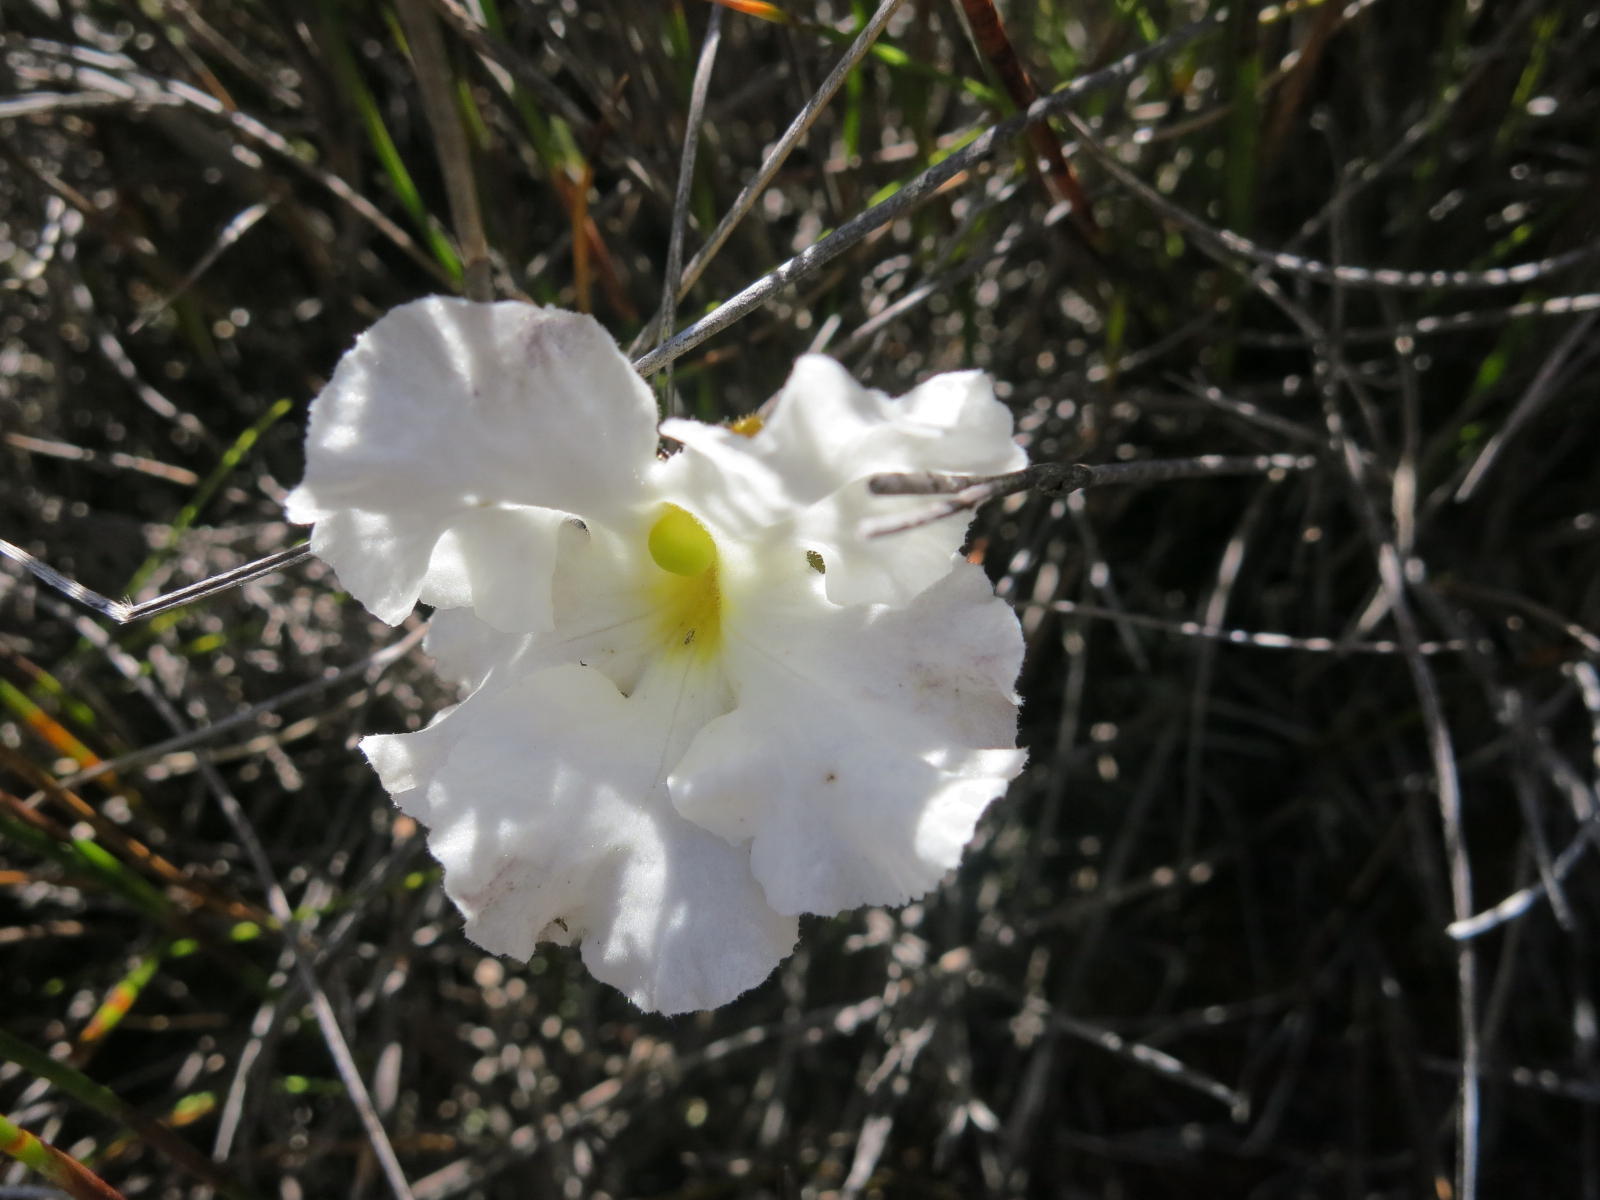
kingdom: Plantae
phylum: Tracheophyta
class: Magnoliopsida
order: Lamiales
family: Orobanchaceae
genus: Harveya
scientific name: Harveya capensis
